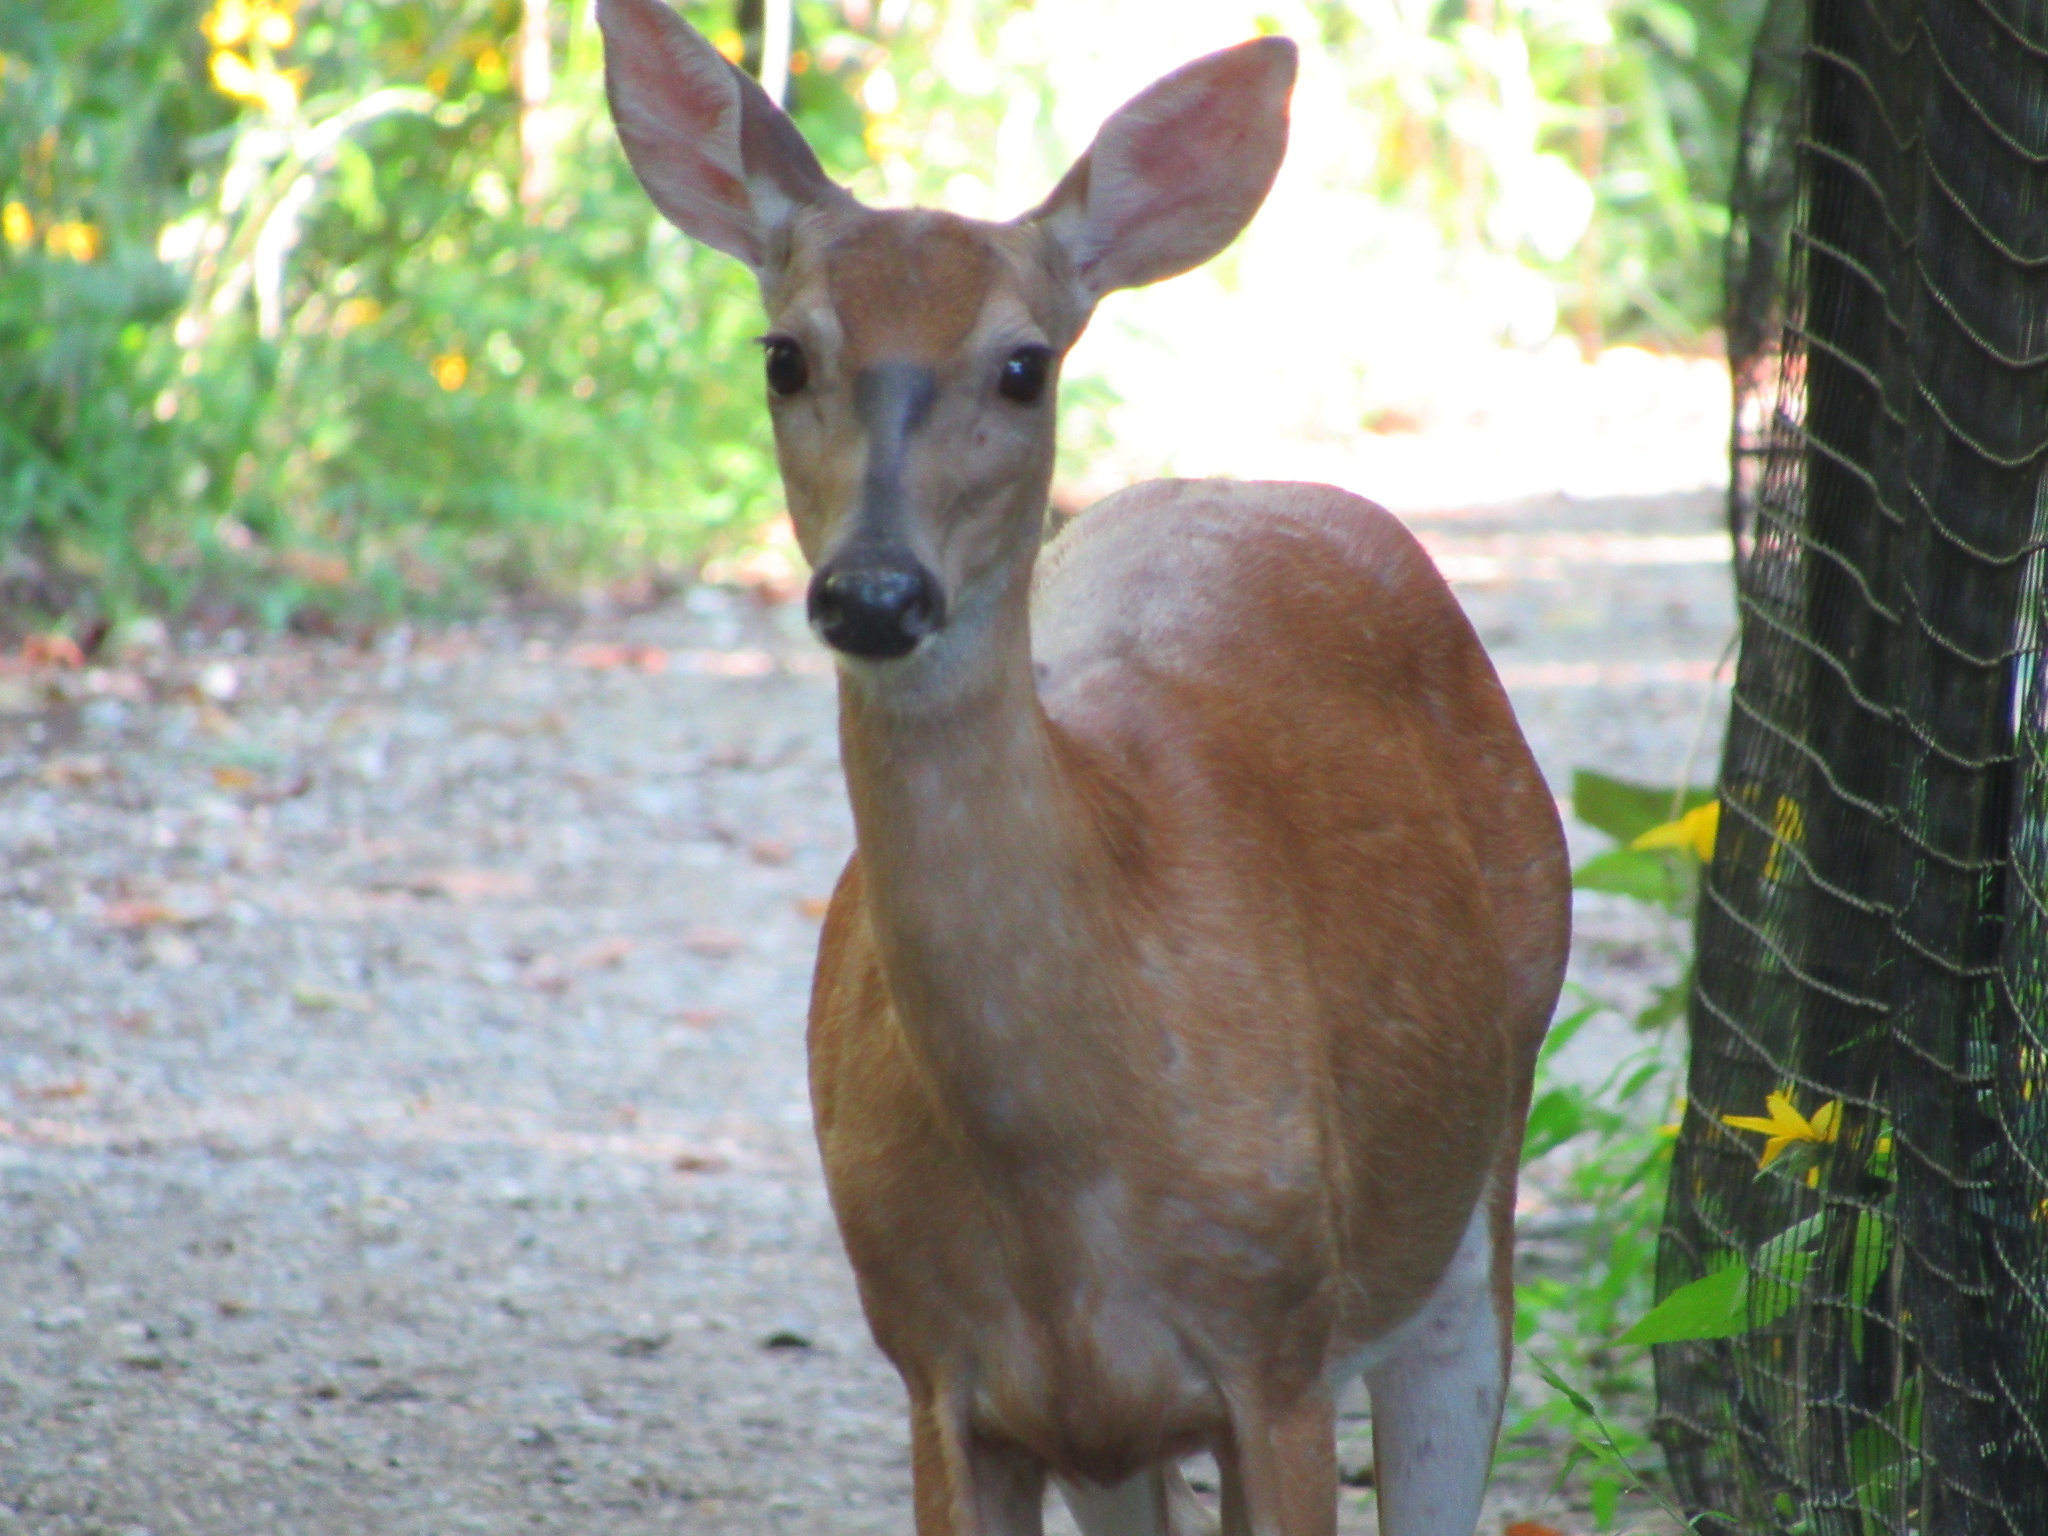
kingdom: Animalia
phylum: Chordata
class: Mammalia
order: Artiodactyla
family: Cervidae
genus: Odocoileus
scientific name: Odocoileus virginianus
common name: White-tailed deer
